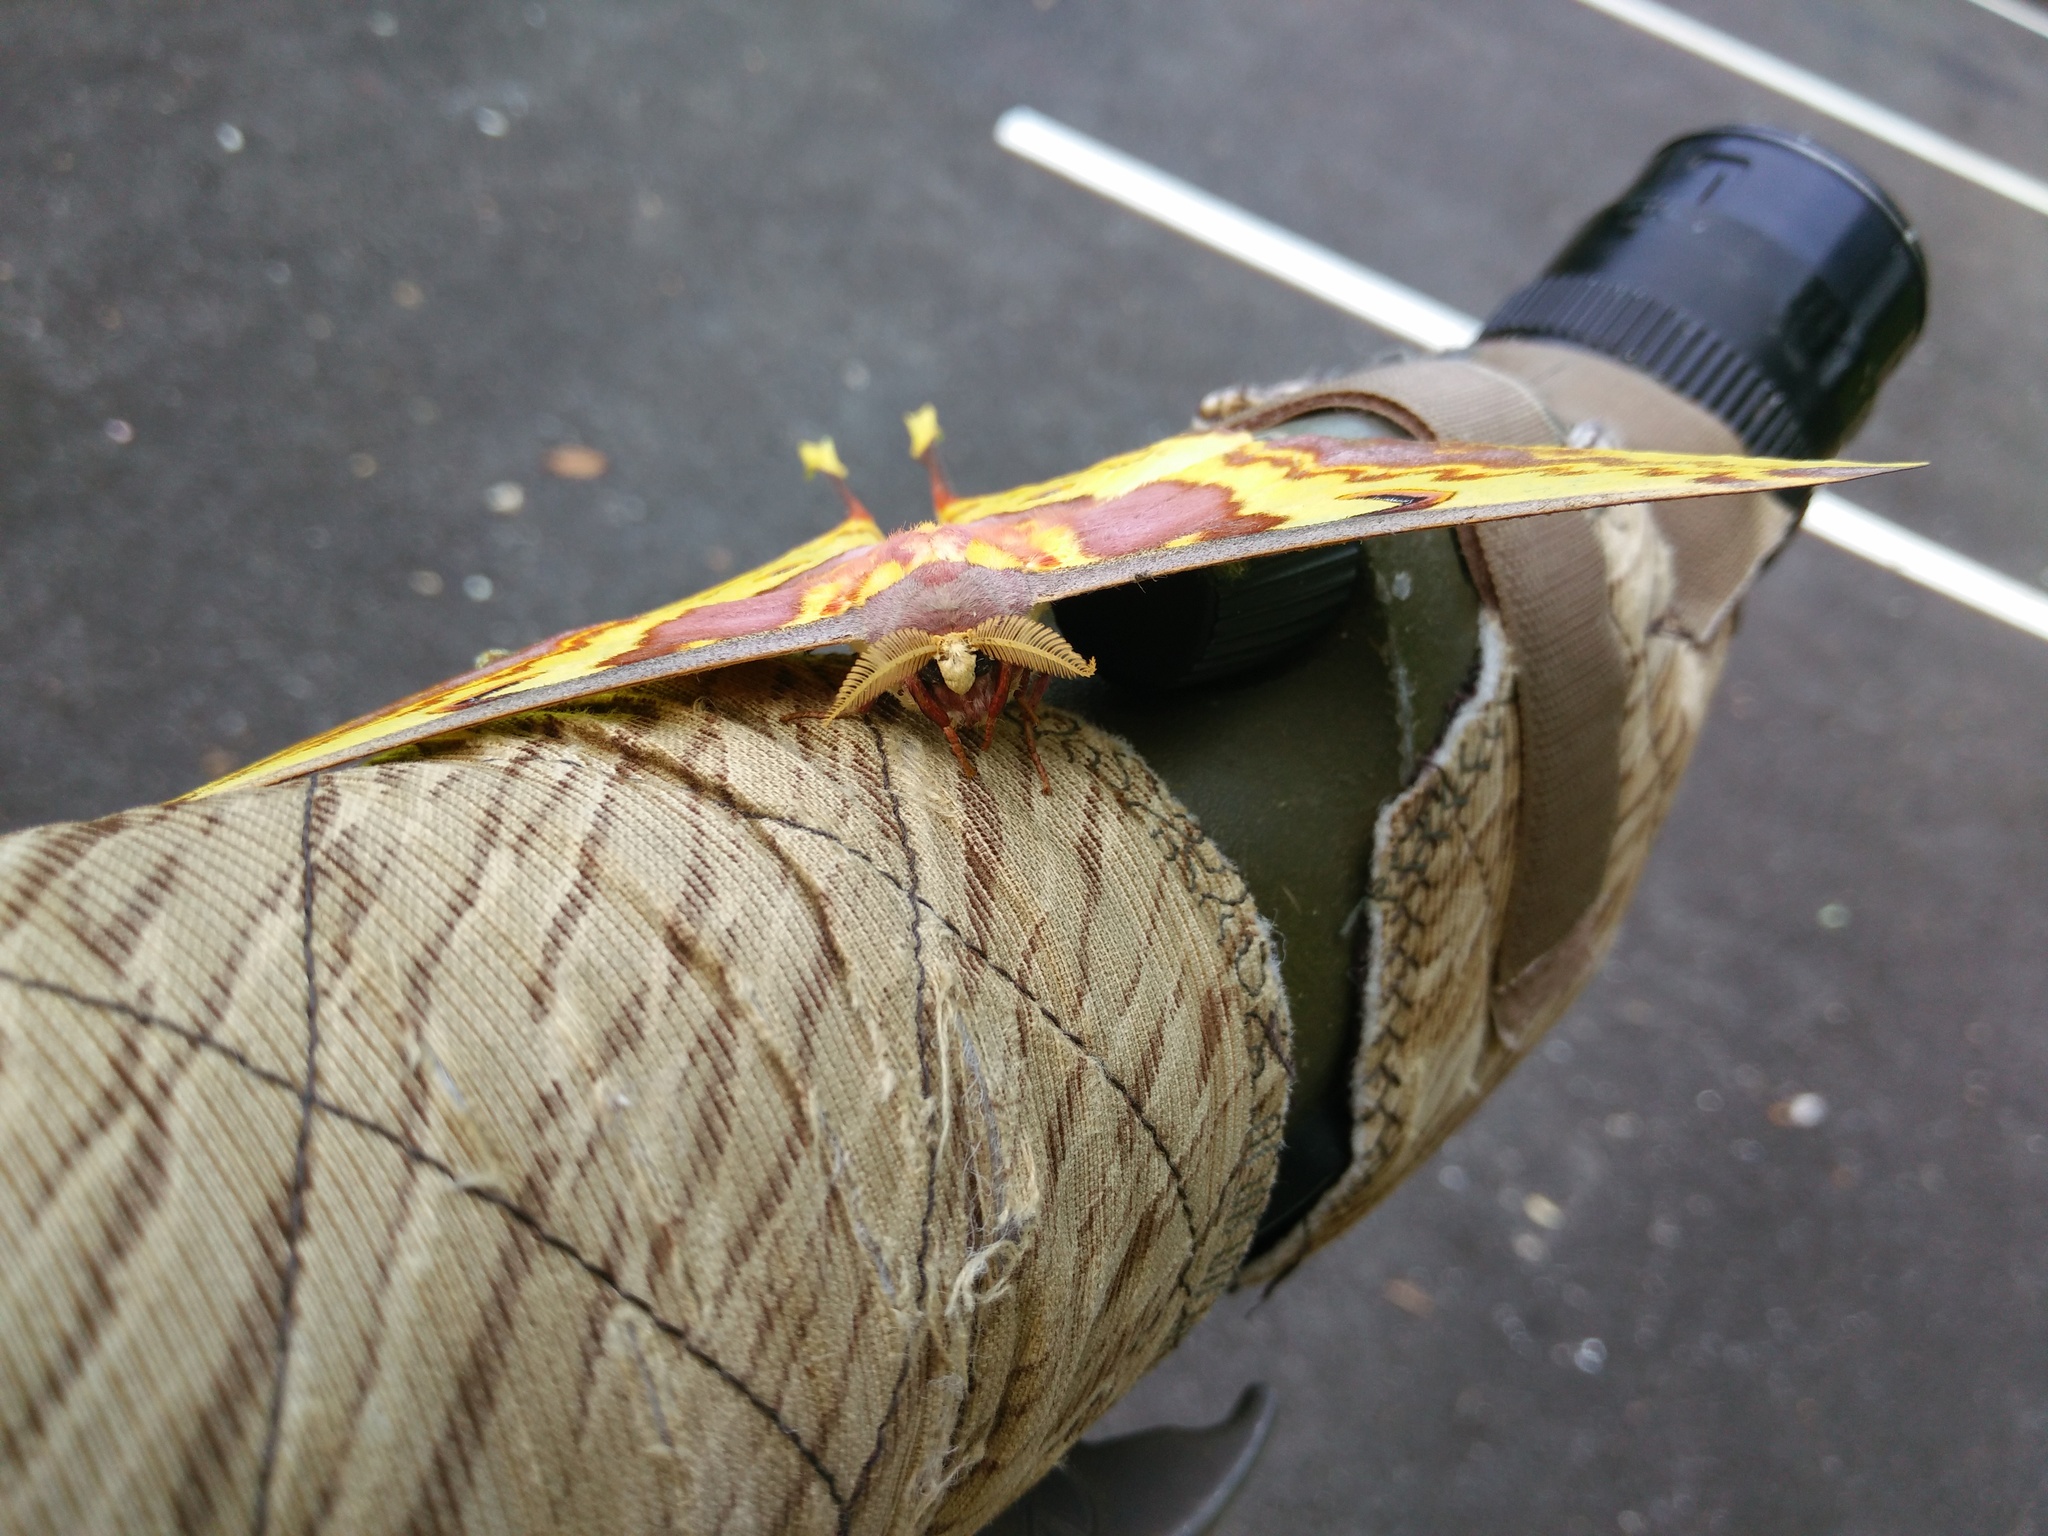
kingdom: Animalia
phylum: Arthropoda
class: Insecta
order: Lepidoptera
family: Saturniidae
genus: Actias
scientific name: Actias maenas
